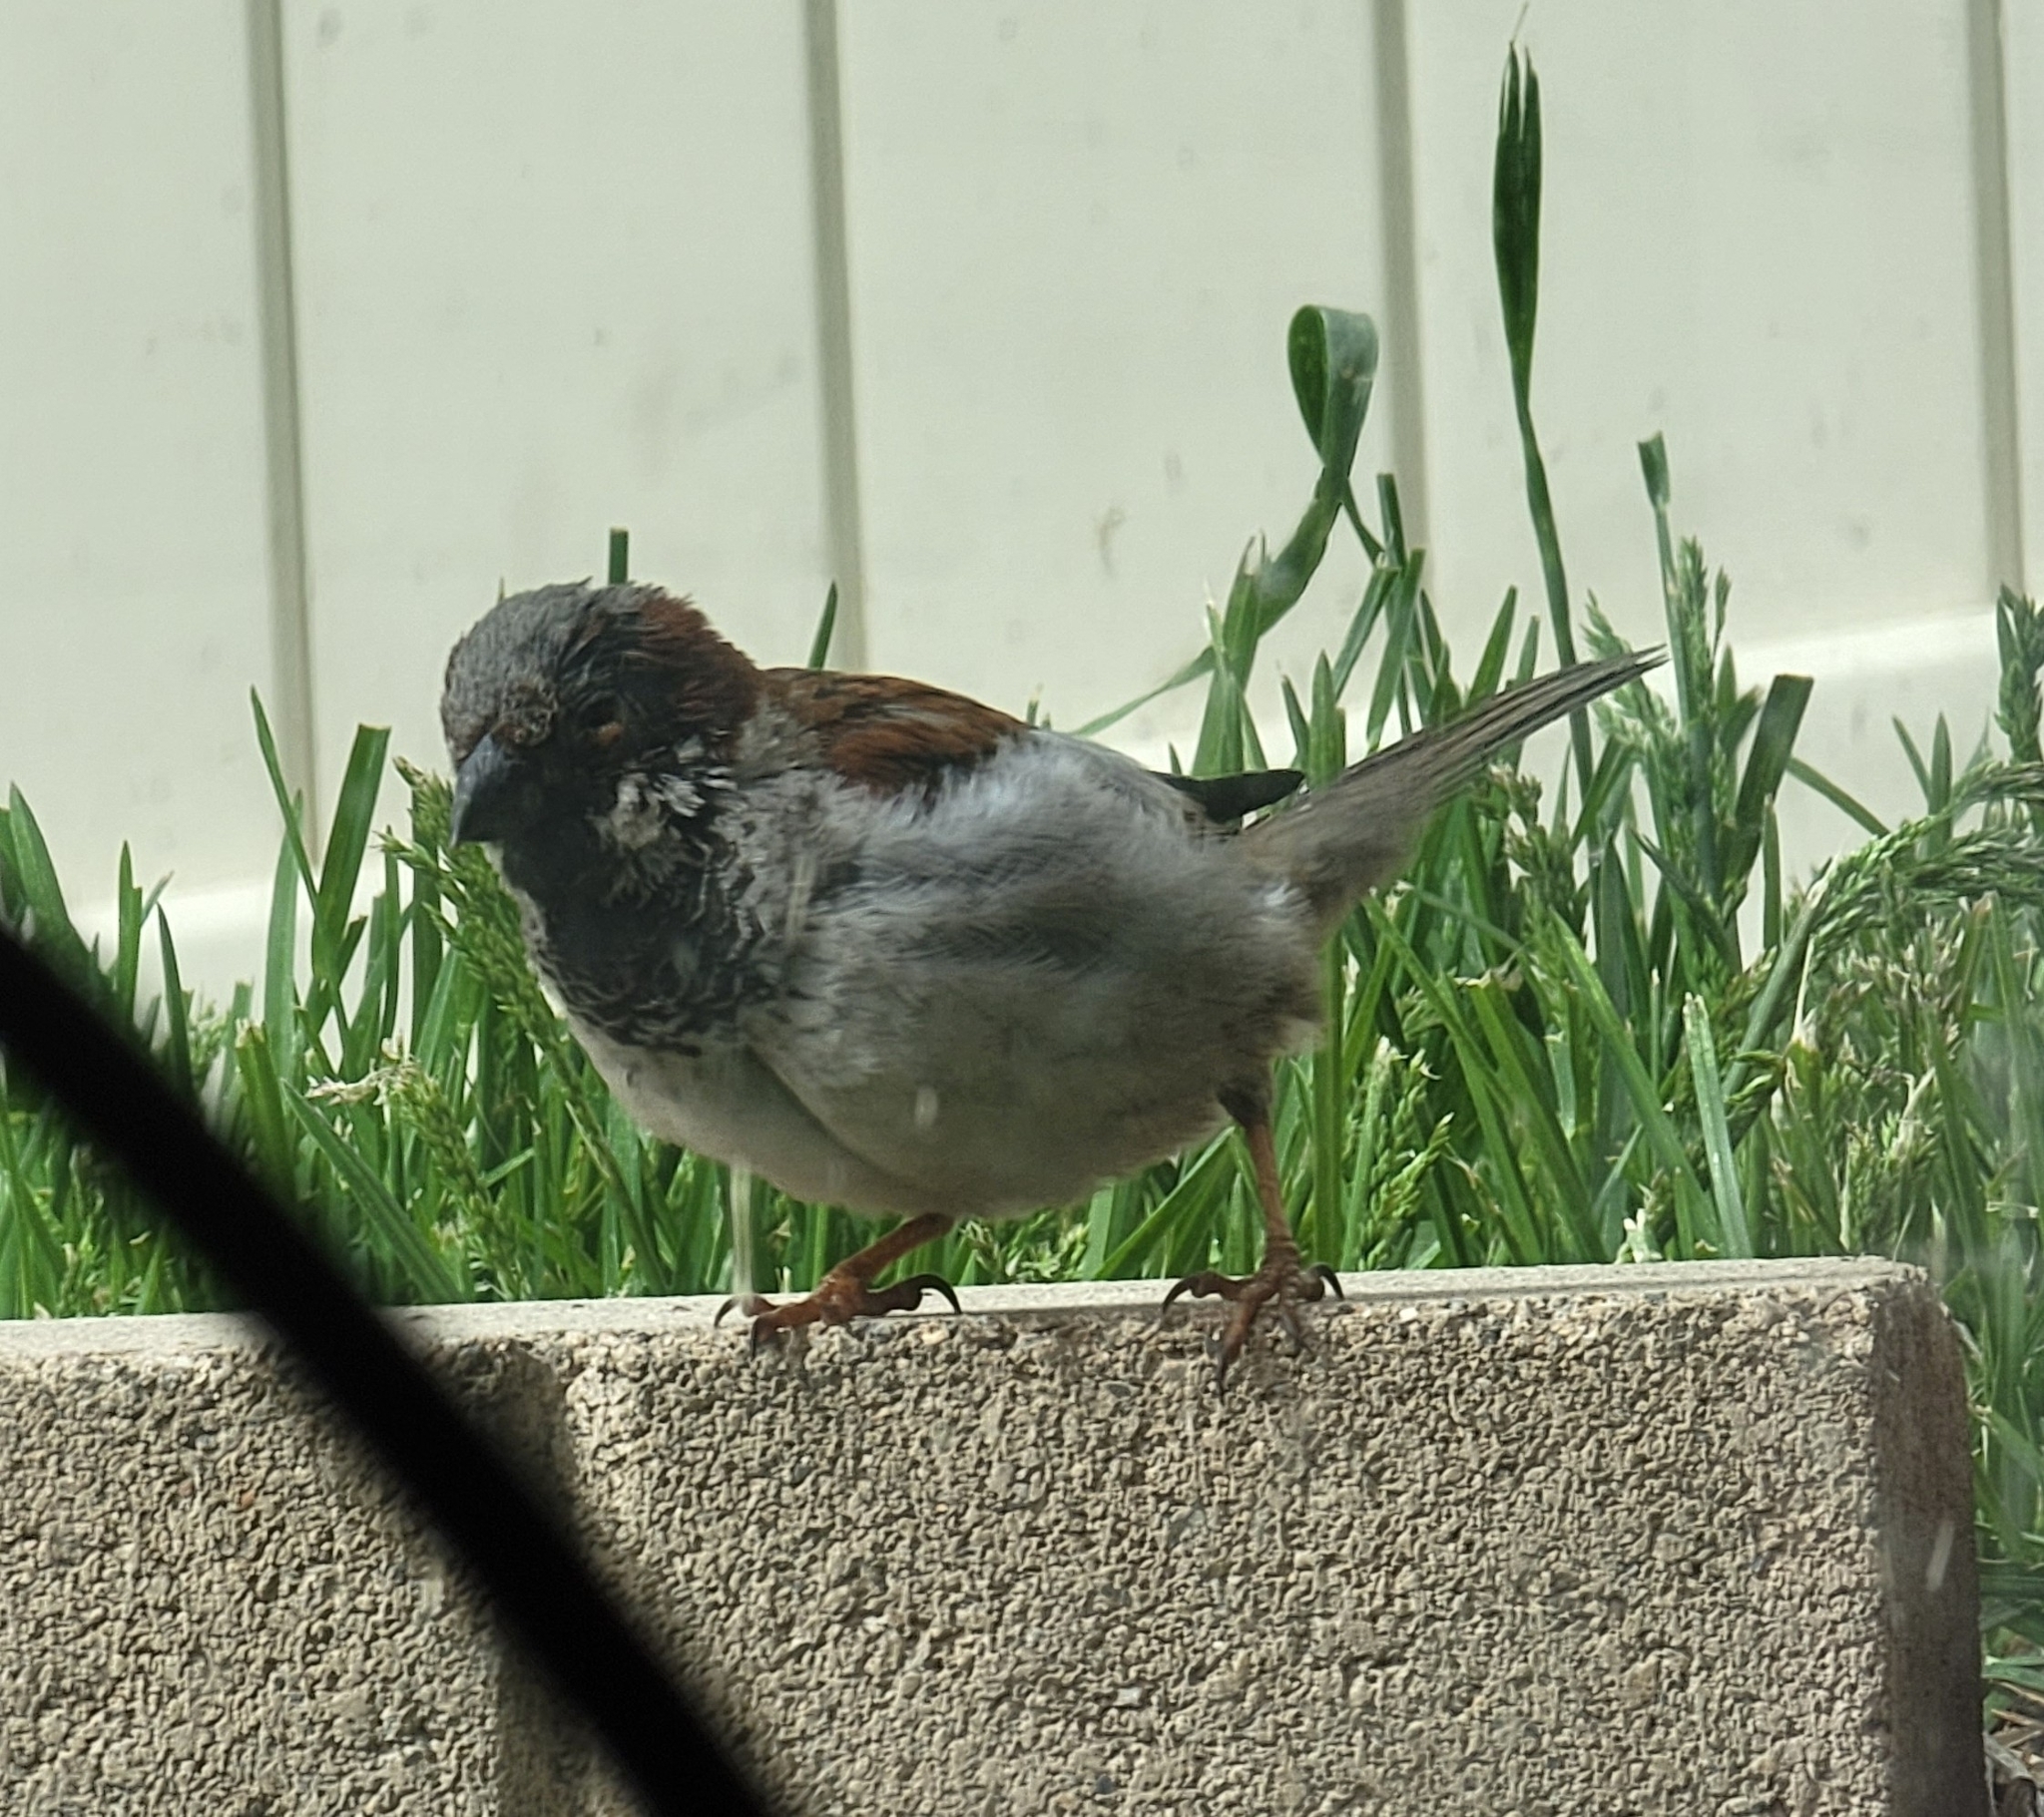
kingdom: Animalia
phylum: Chordata
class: Aves
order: Passeriformes
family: Passeridae
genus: Passer
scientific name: Passer domesticus
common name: House sparrow
